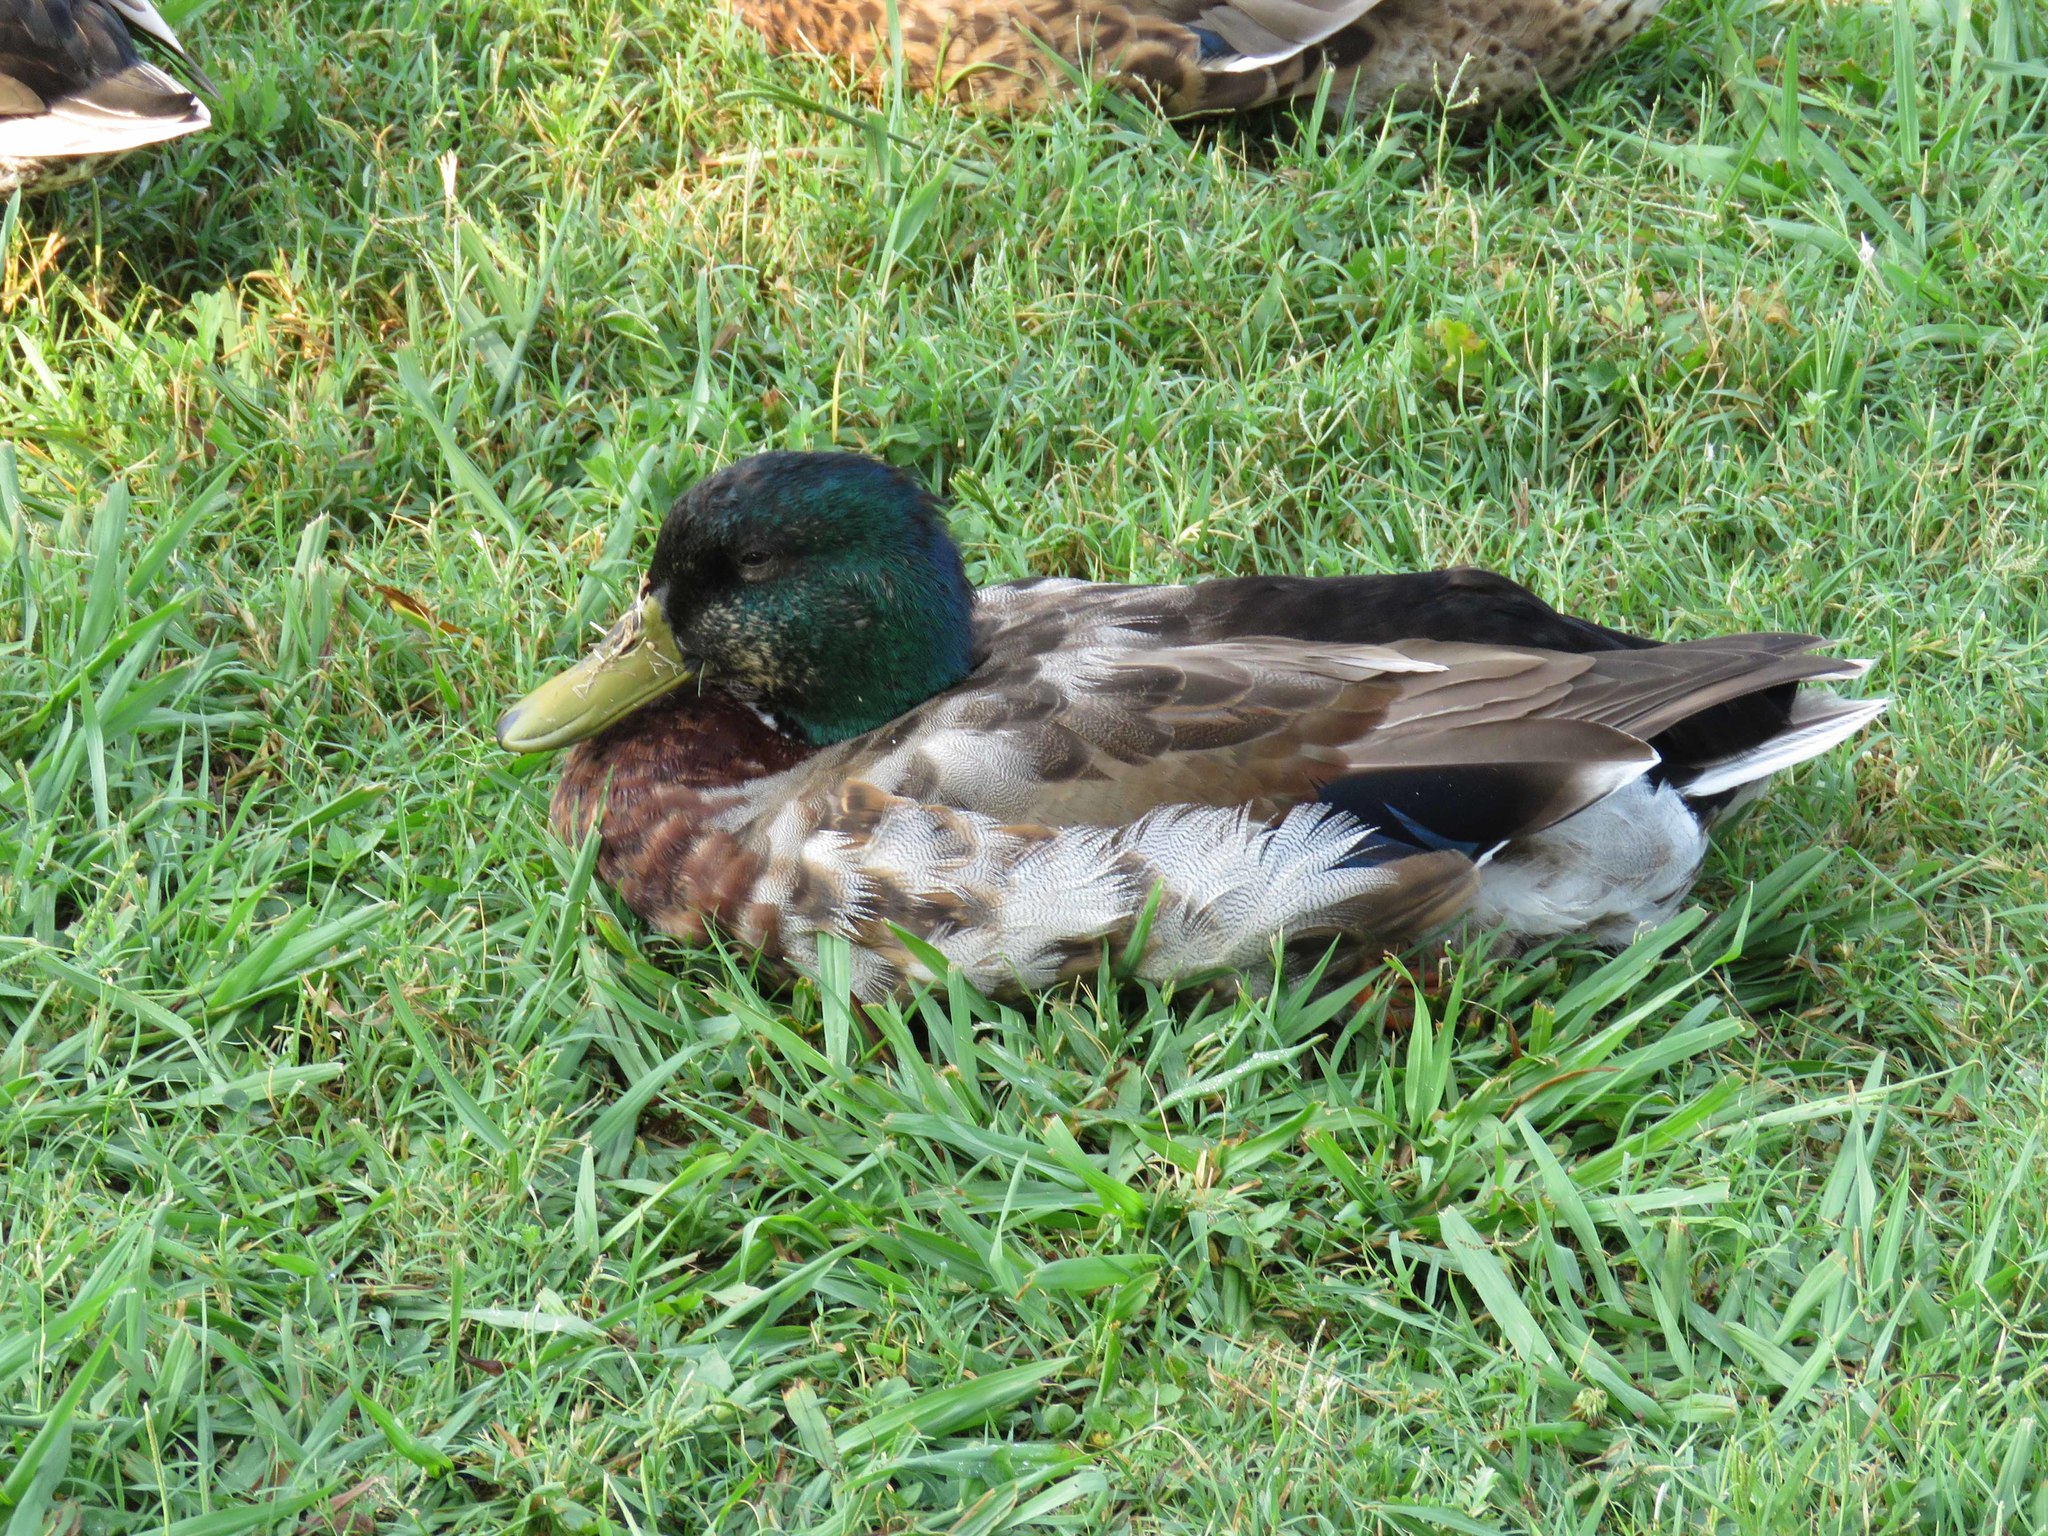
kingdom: Animalia
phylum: Chordata
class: Aves
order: Anseriformes
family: Anatidae
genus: Anas
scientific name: Anas platyrhynchos
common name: Mallard
